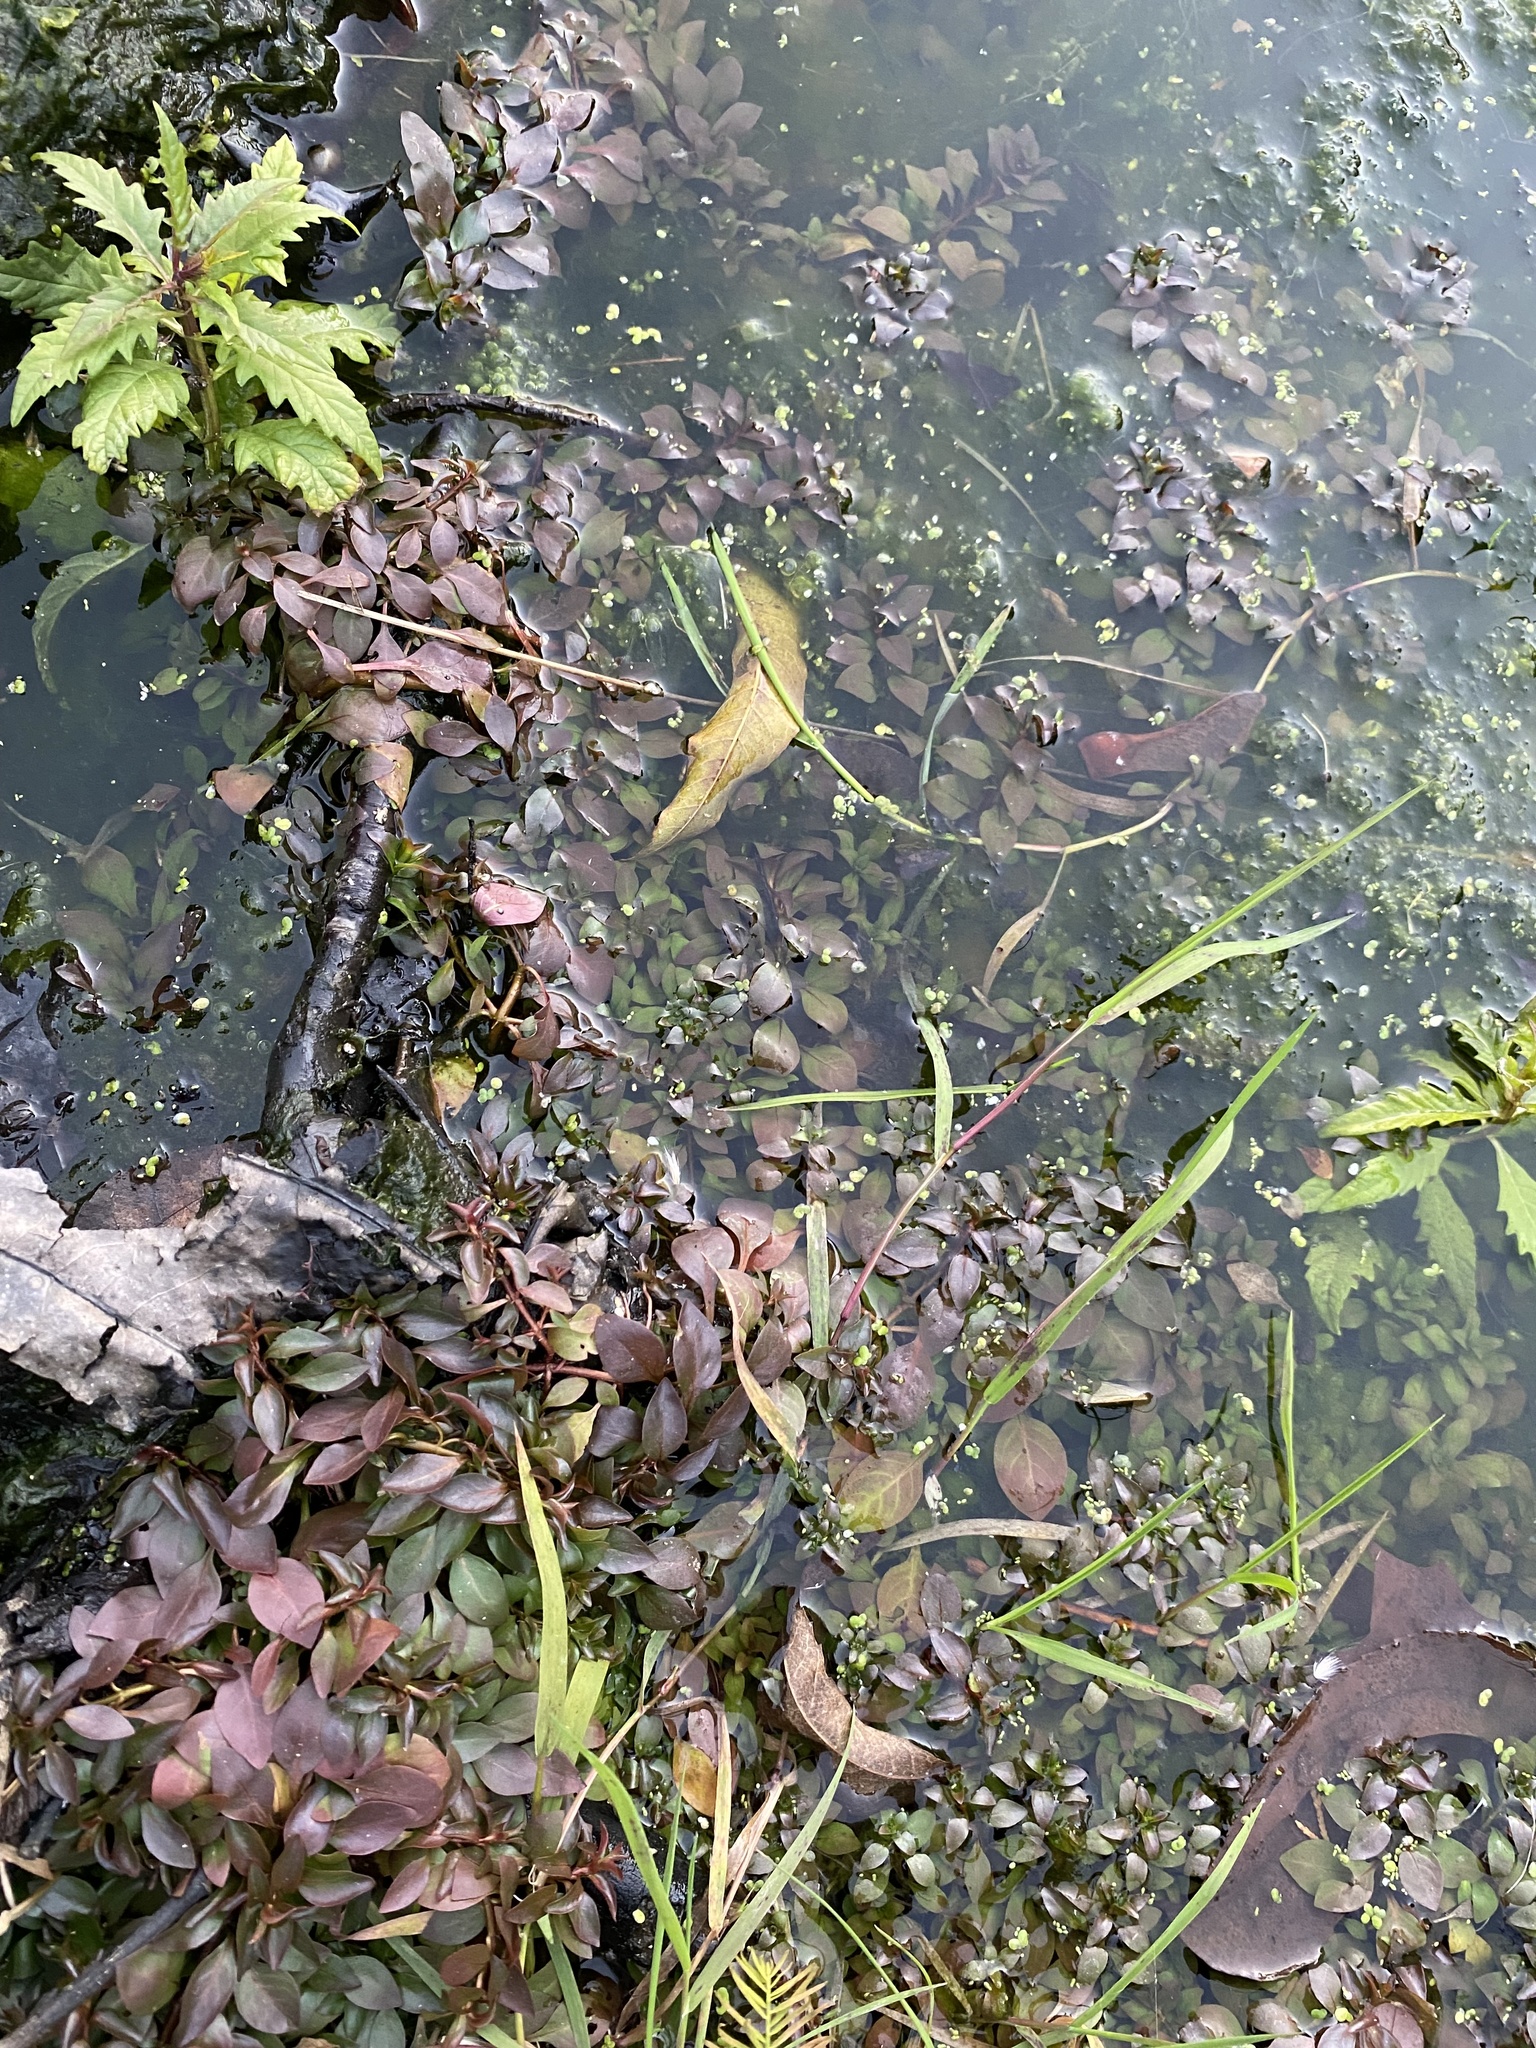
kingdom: Plantae
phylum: Tracheophyta
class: Magnoliopsida
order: Myrtales
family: Onagraceae
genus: Ludwigia
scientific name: Ludwigia palustris
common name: Hampshire-purslane
